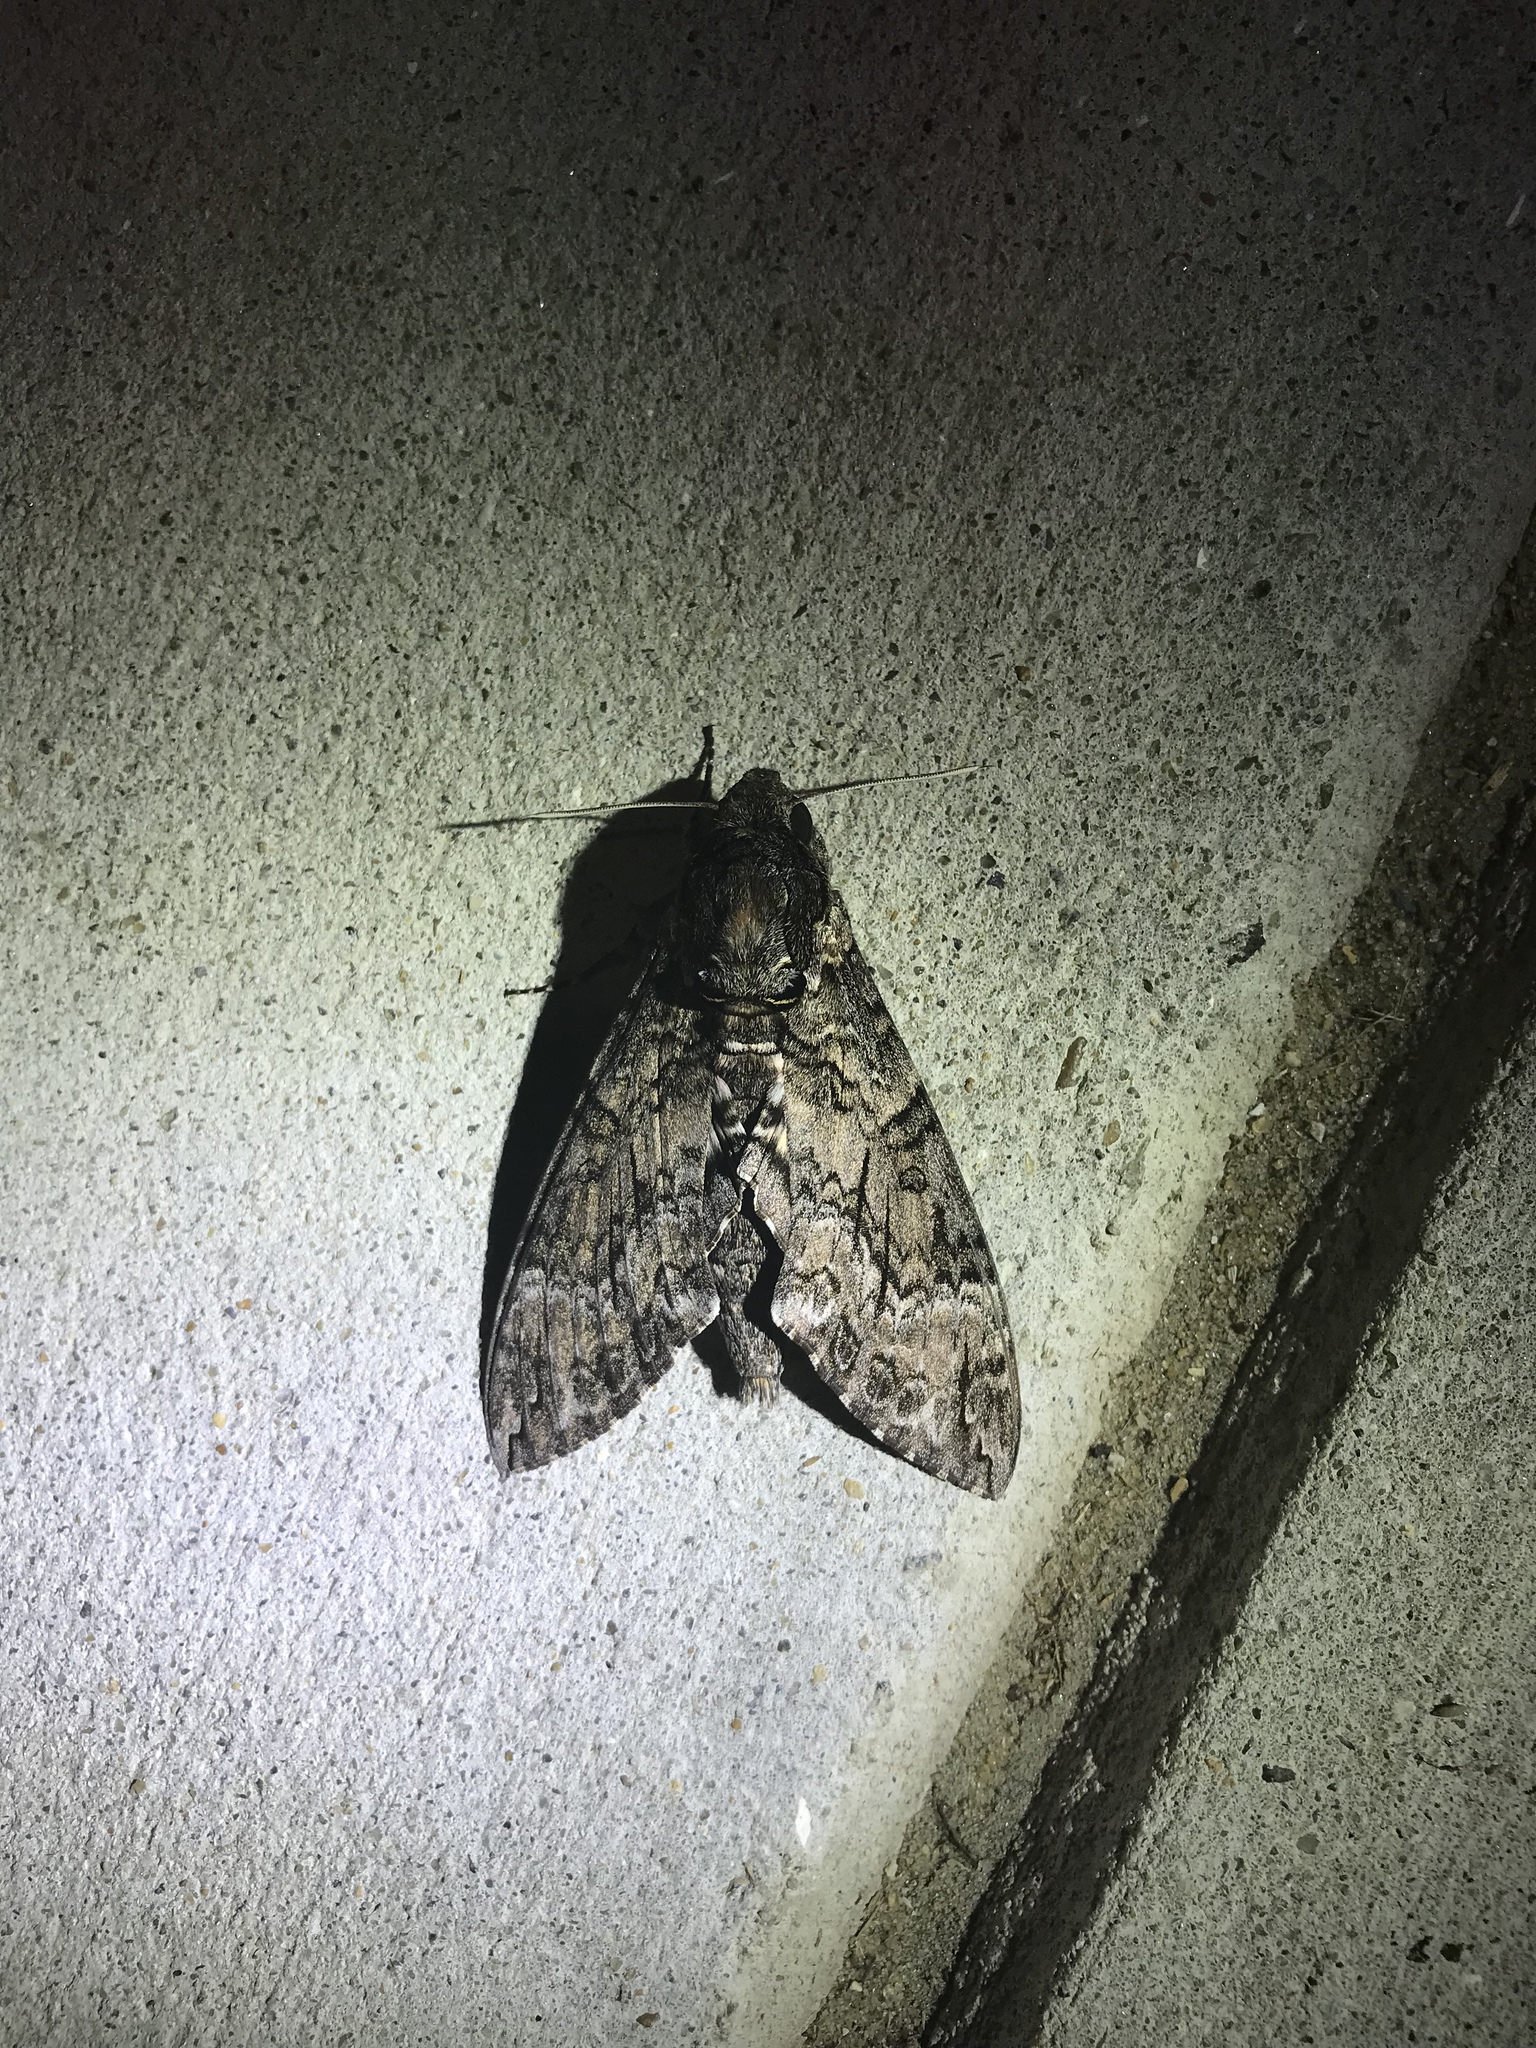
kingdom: Animalia
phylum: Arthropoda
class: Insecta
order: Lepidoptera
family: Sphingidae
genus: Agrius
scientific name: Agrius cingulata
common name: Pink-spotted hawkmoth
